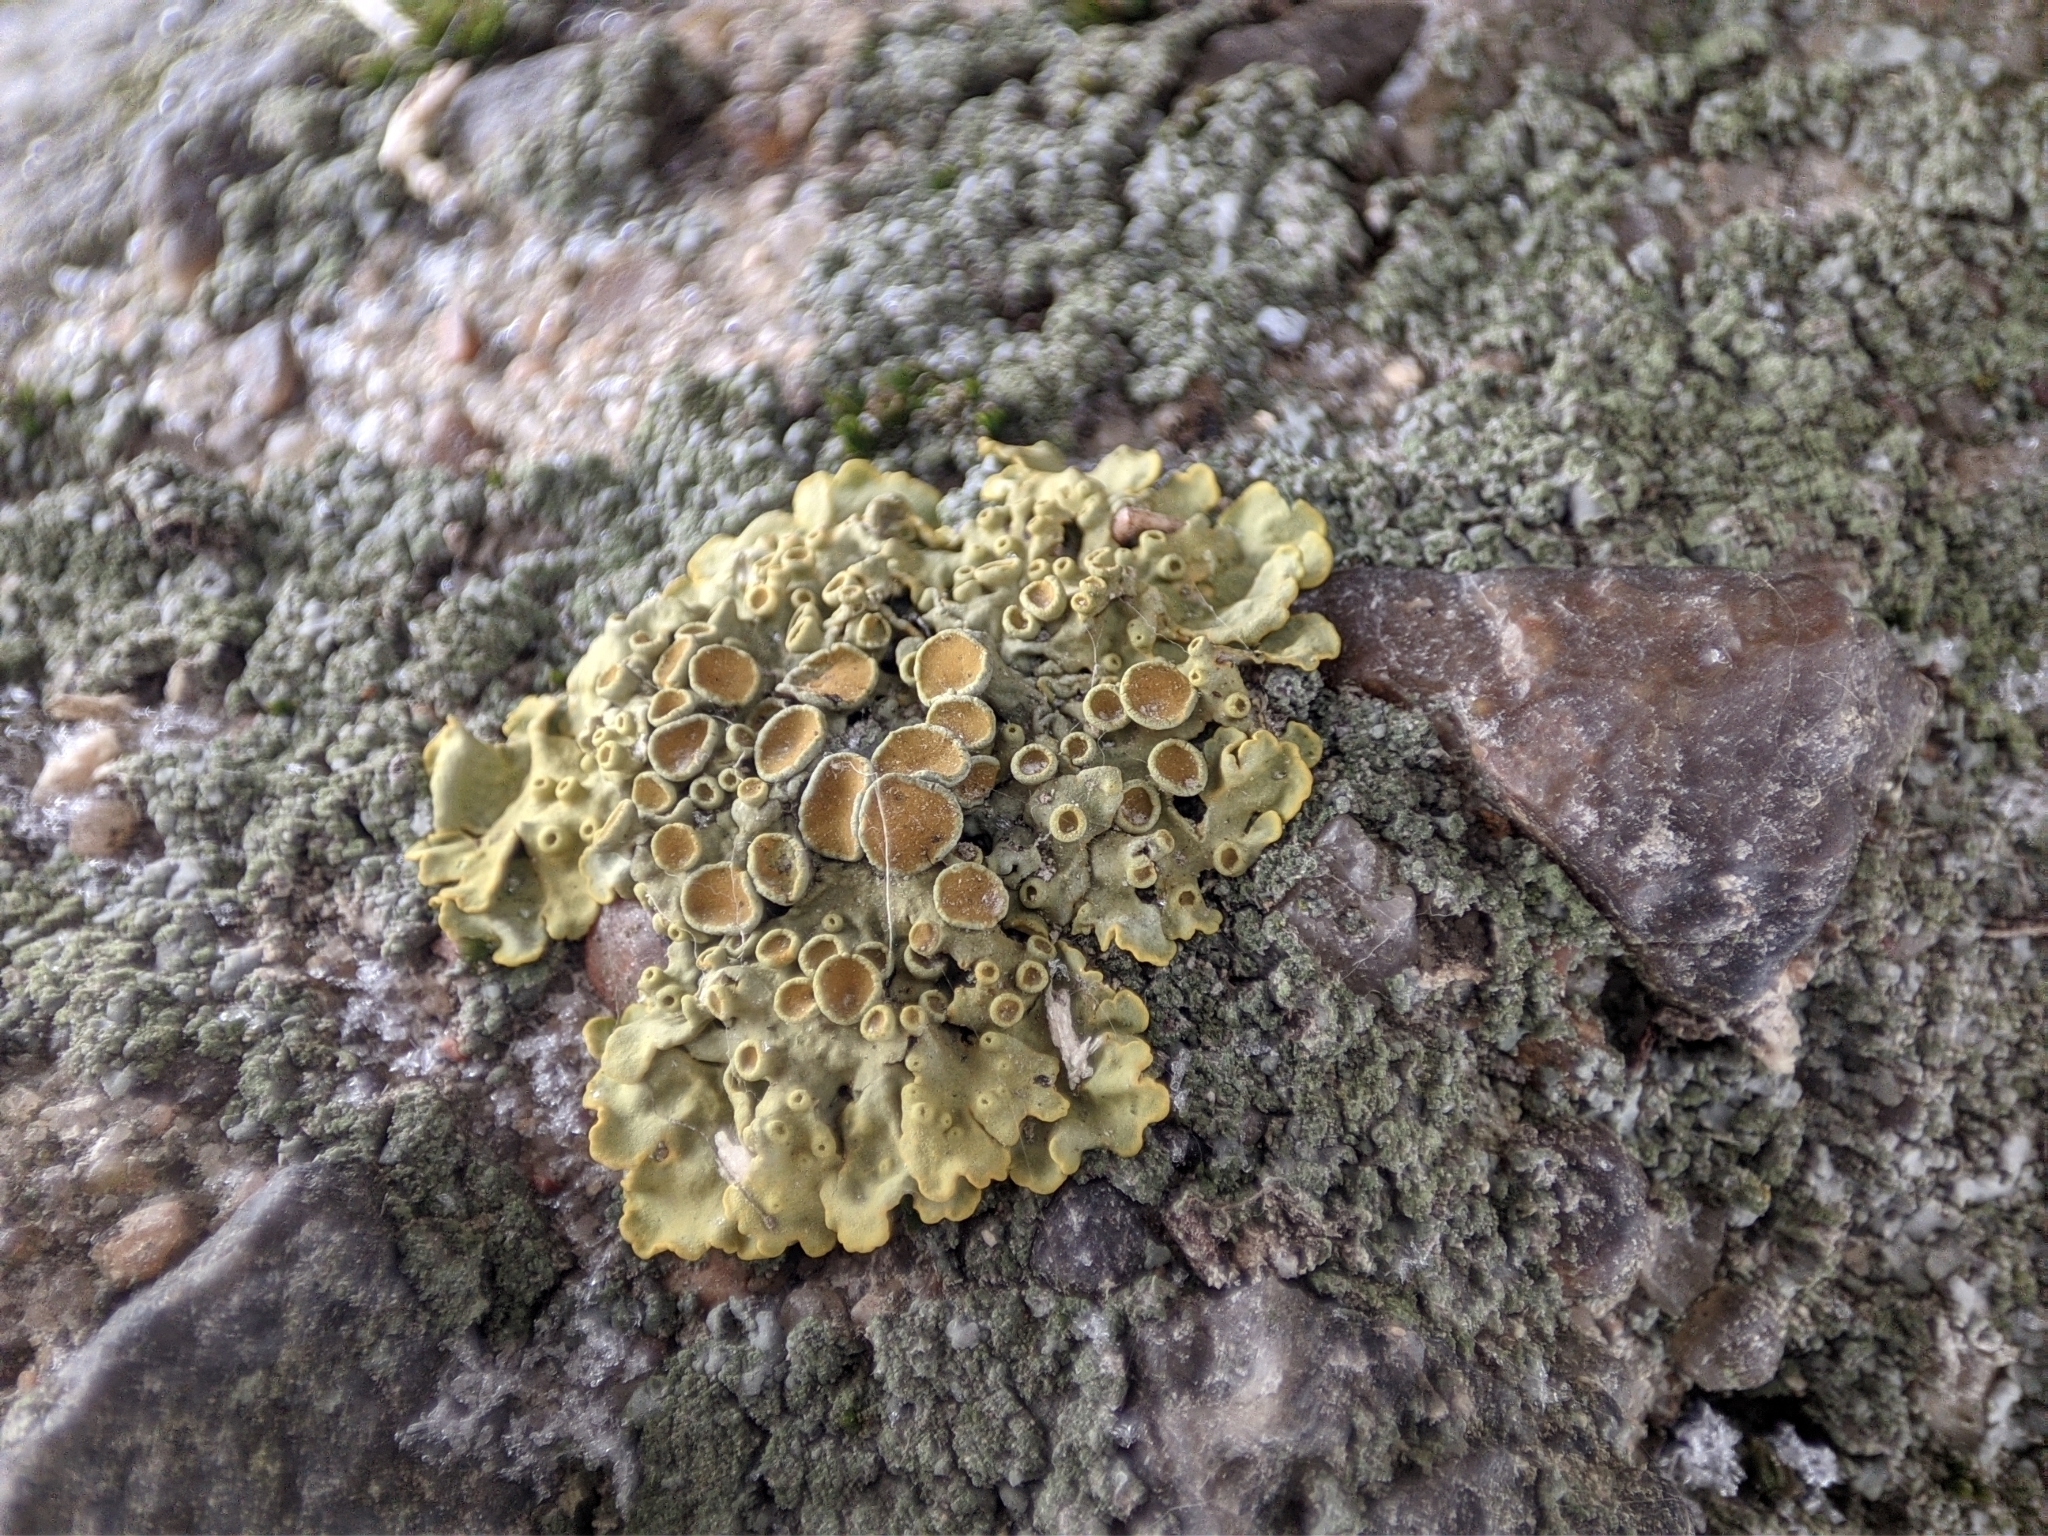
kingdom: Fungi
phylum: Ascomycota
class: Lecanoromycetes
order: Teloschistales
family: Teloschistaceae
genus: Xanthoria
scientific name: Xanthoria parietina
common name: Common orange lichen
